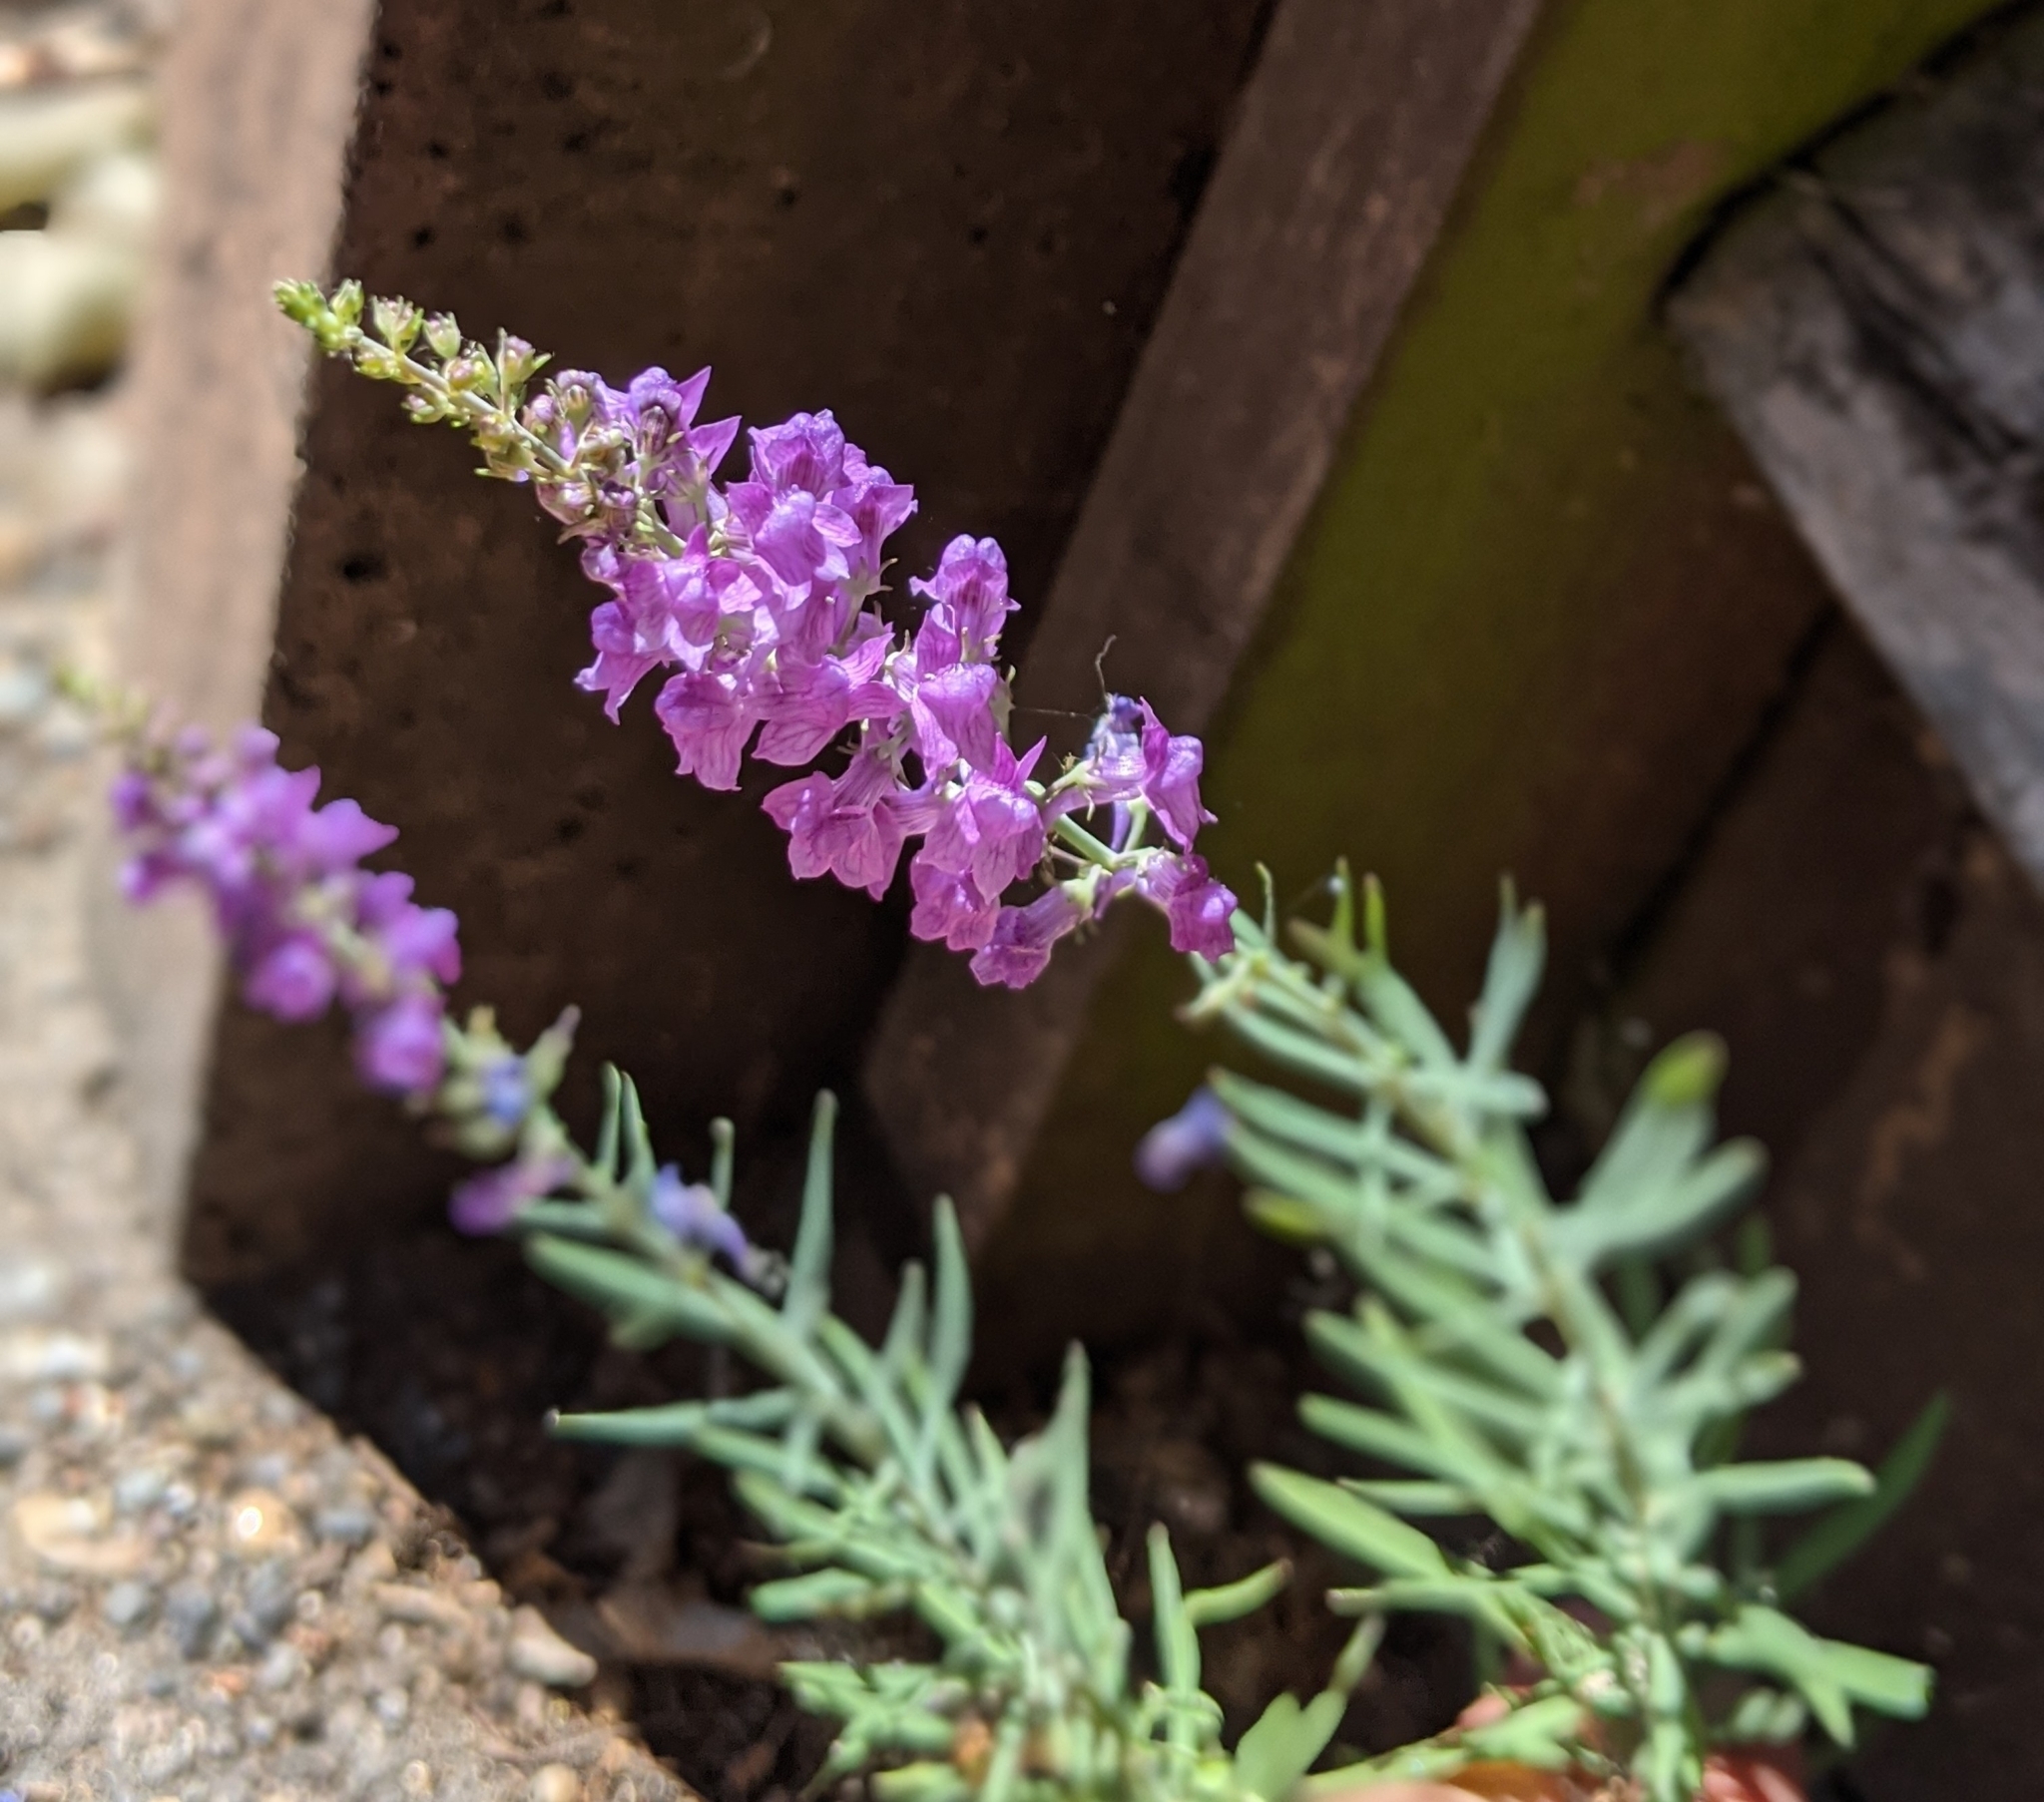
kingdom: Plantae
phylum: Tracheophyta
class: Magnoliopsida
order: Lamiales
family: Plantaginaceae
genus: Linaria
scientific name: Linaria purpurea
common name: Purple toadflax
